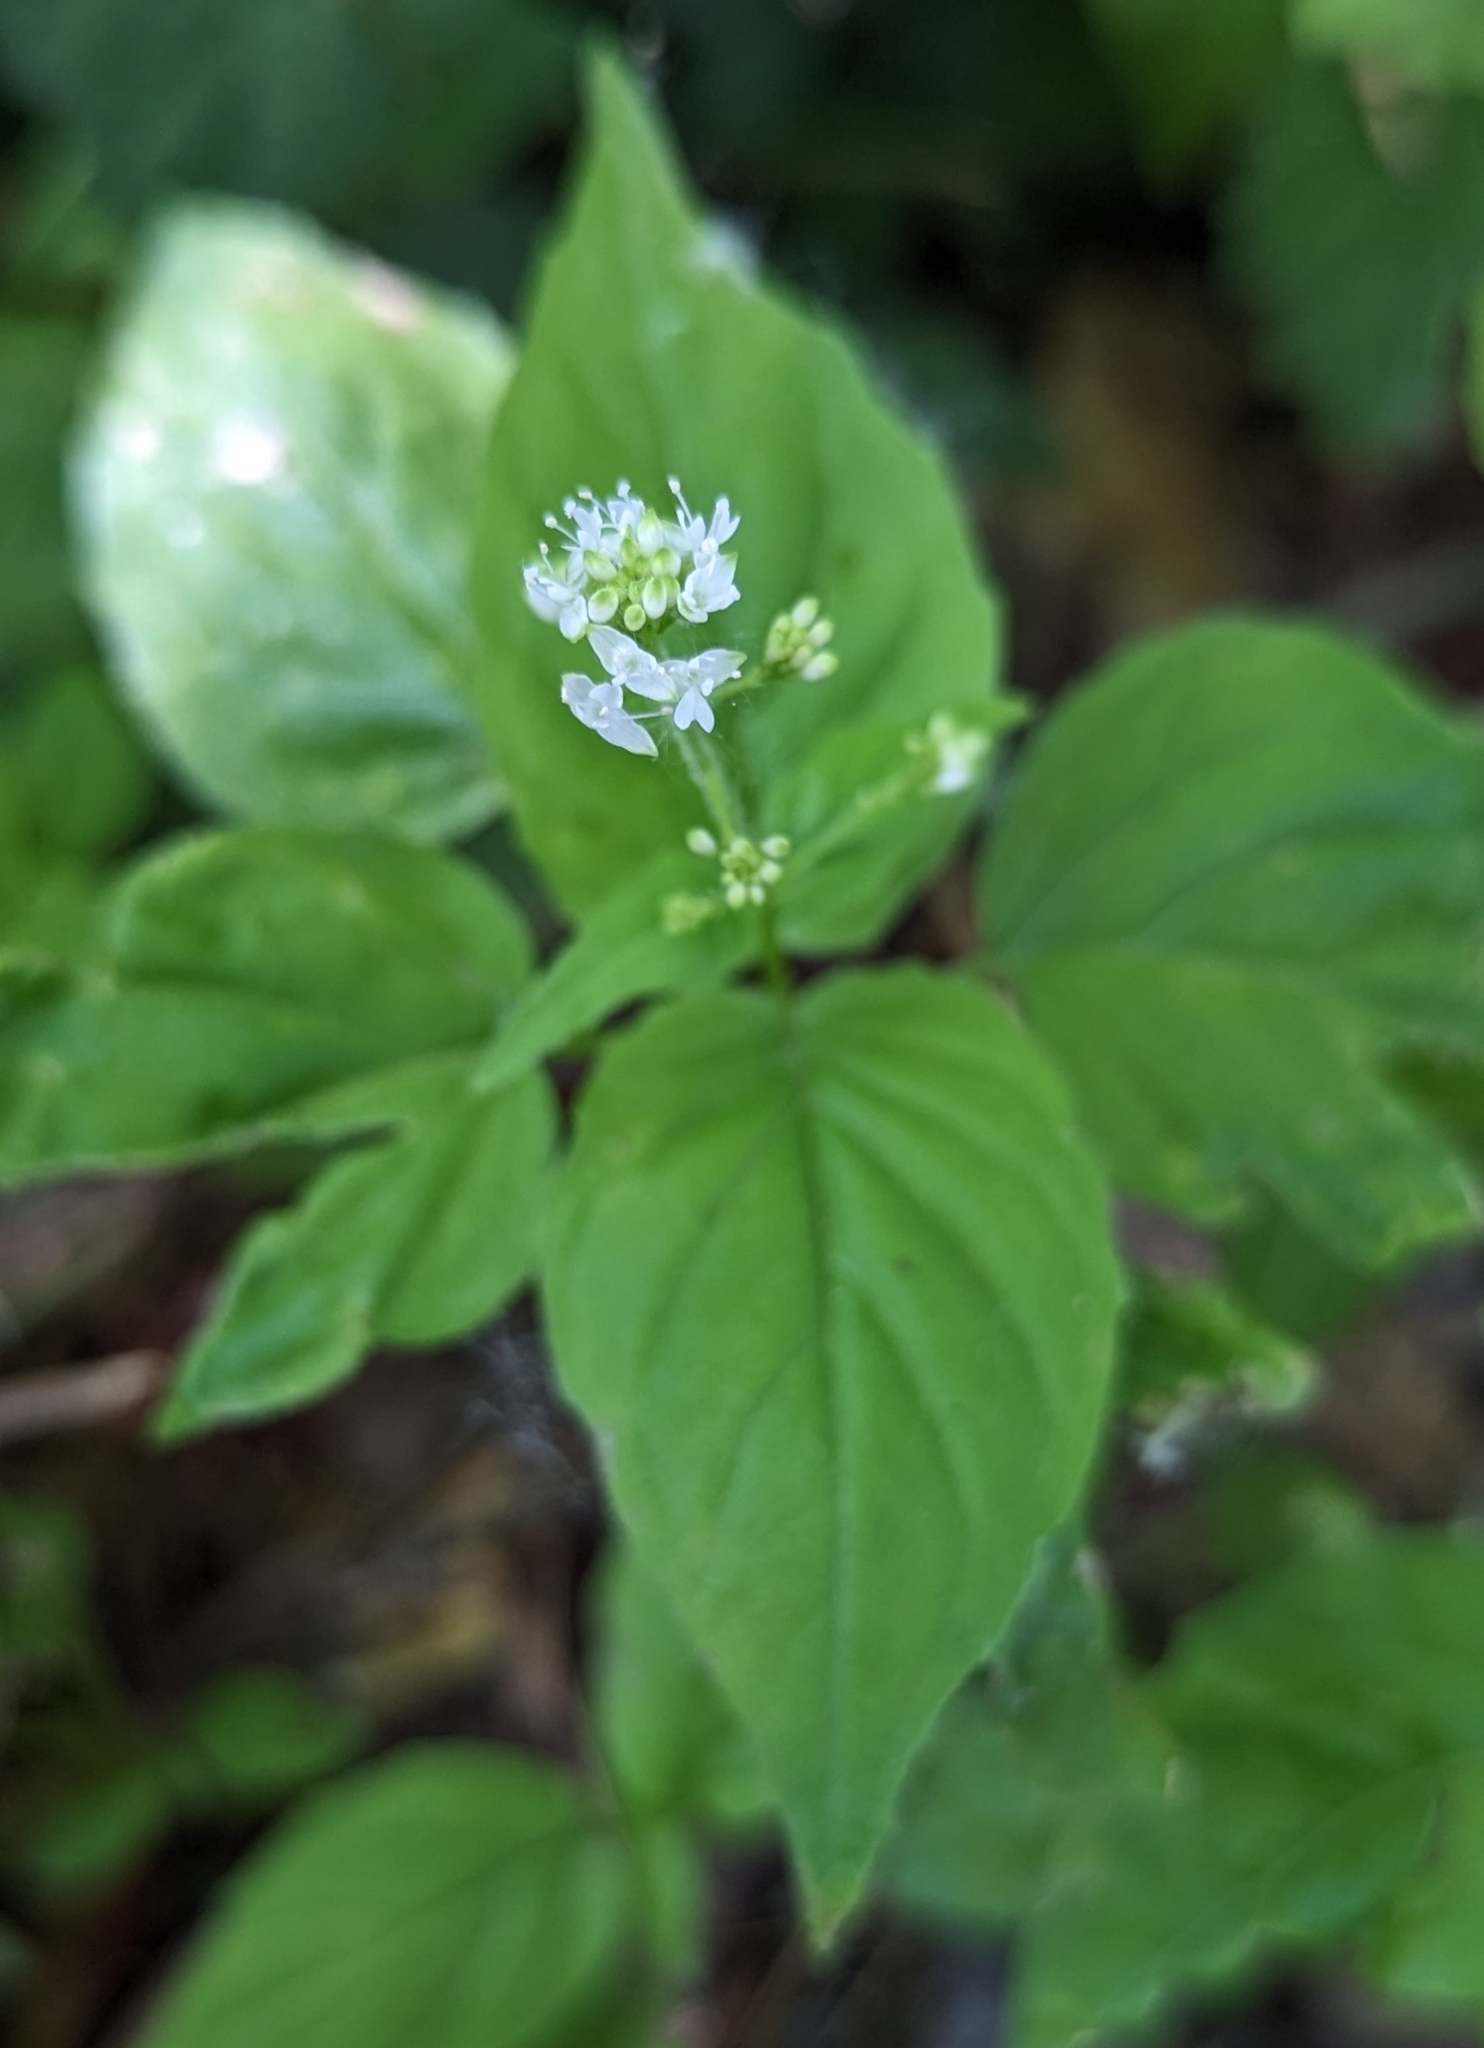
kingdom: Plantae
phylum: Tracheophyta
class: Magnoliopsida
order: Myrtales
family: Onagraceae
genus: Circaea
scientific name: Circaea alpina
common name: Alpine enchanter's-nightshade
